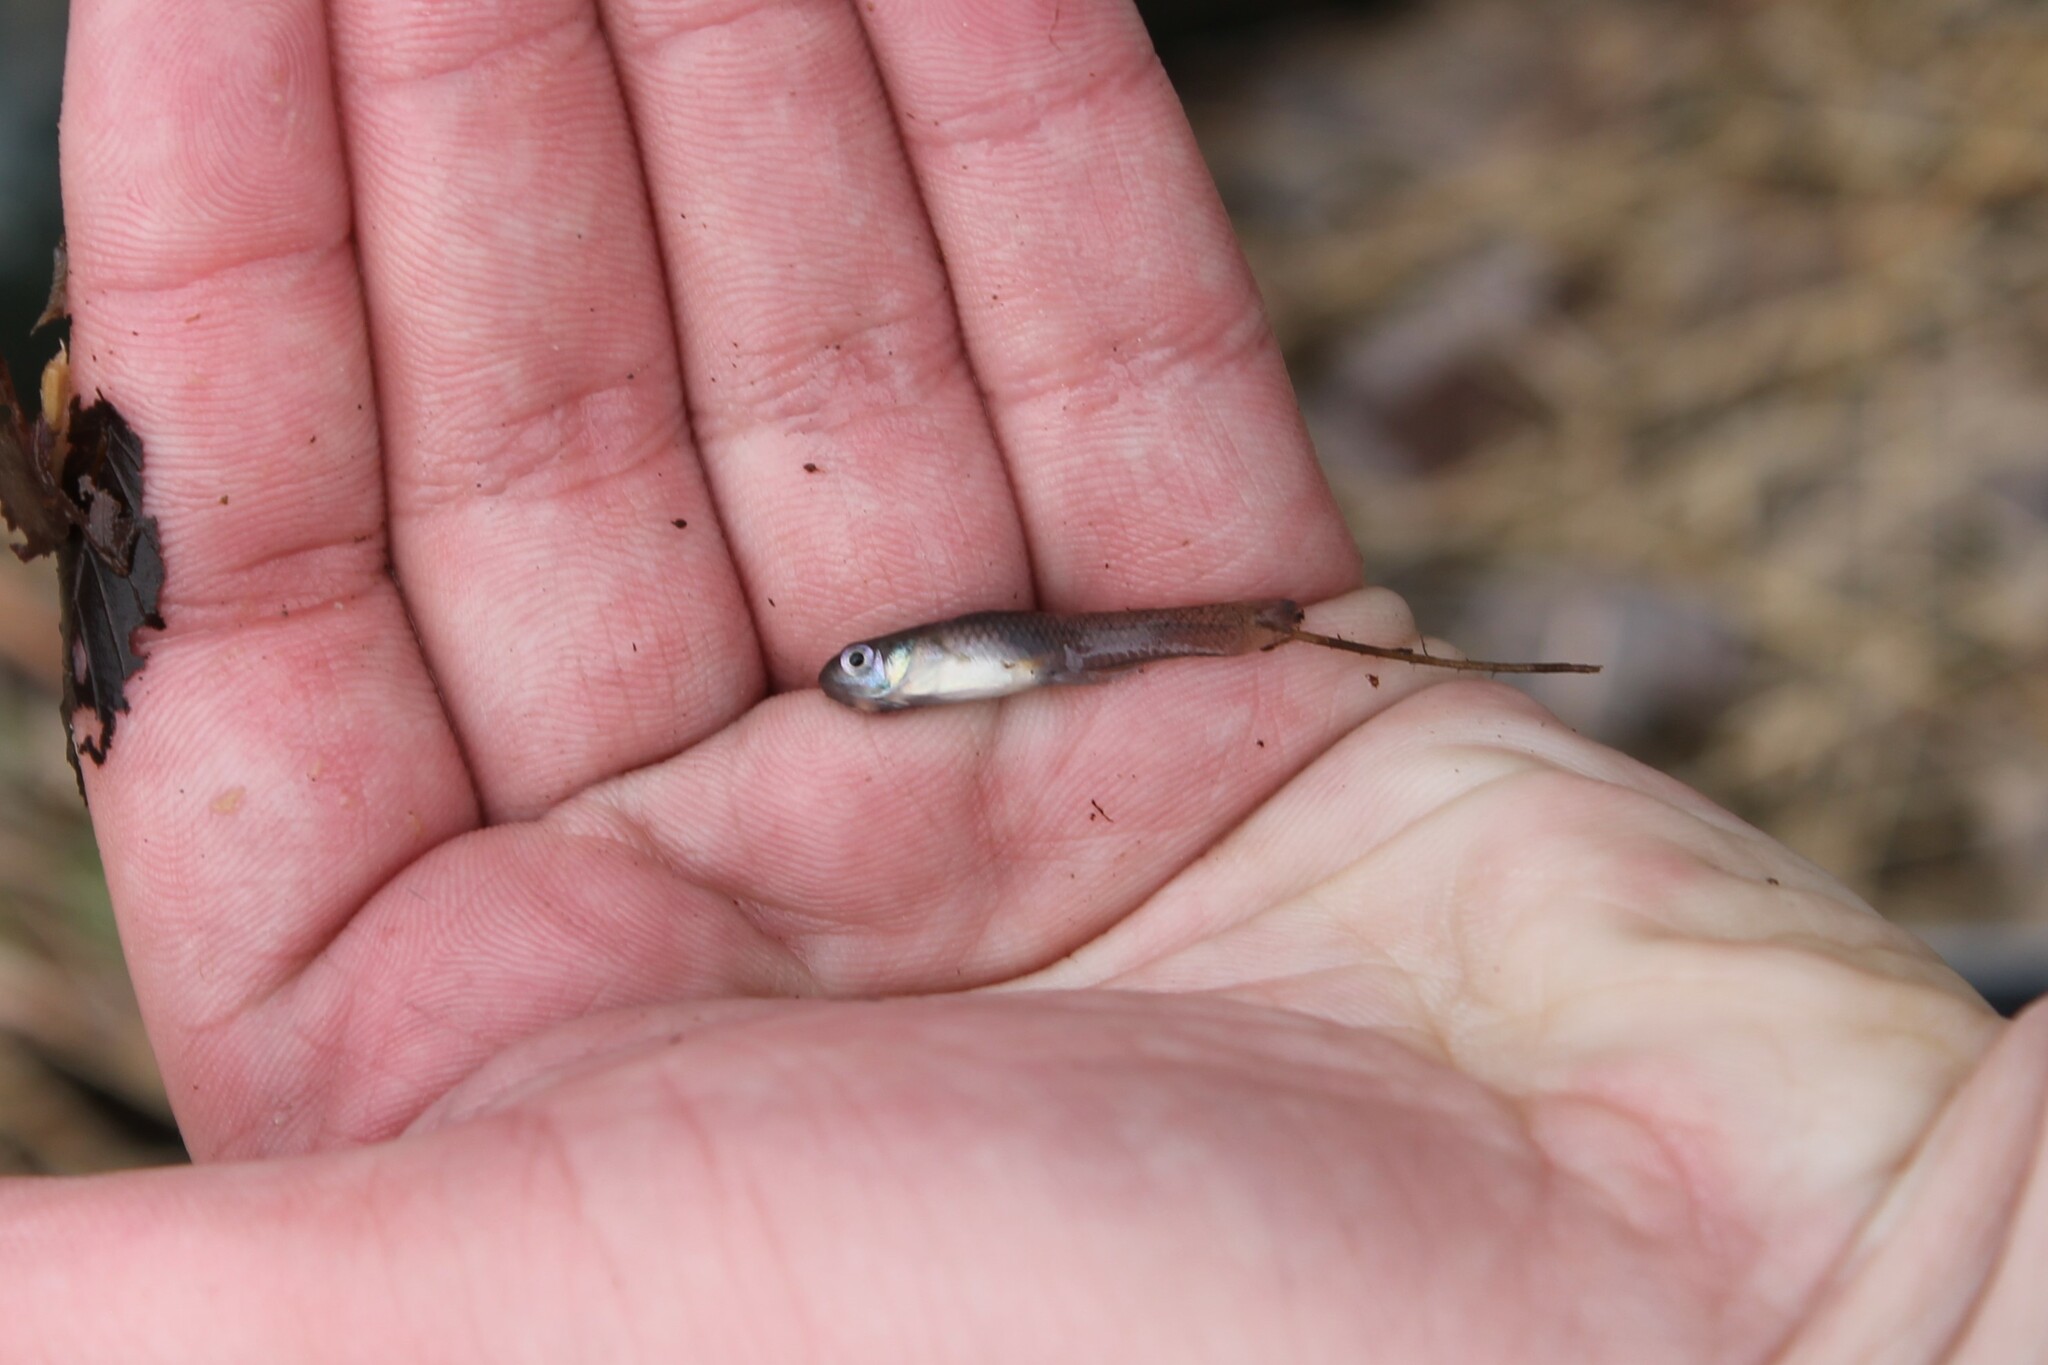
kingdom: Animalia
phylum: Chordata
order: Cyprinodontiformes
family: Poeciliidae
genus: Gambusia
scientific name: Gambusia affinis
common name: Mosquitofish
